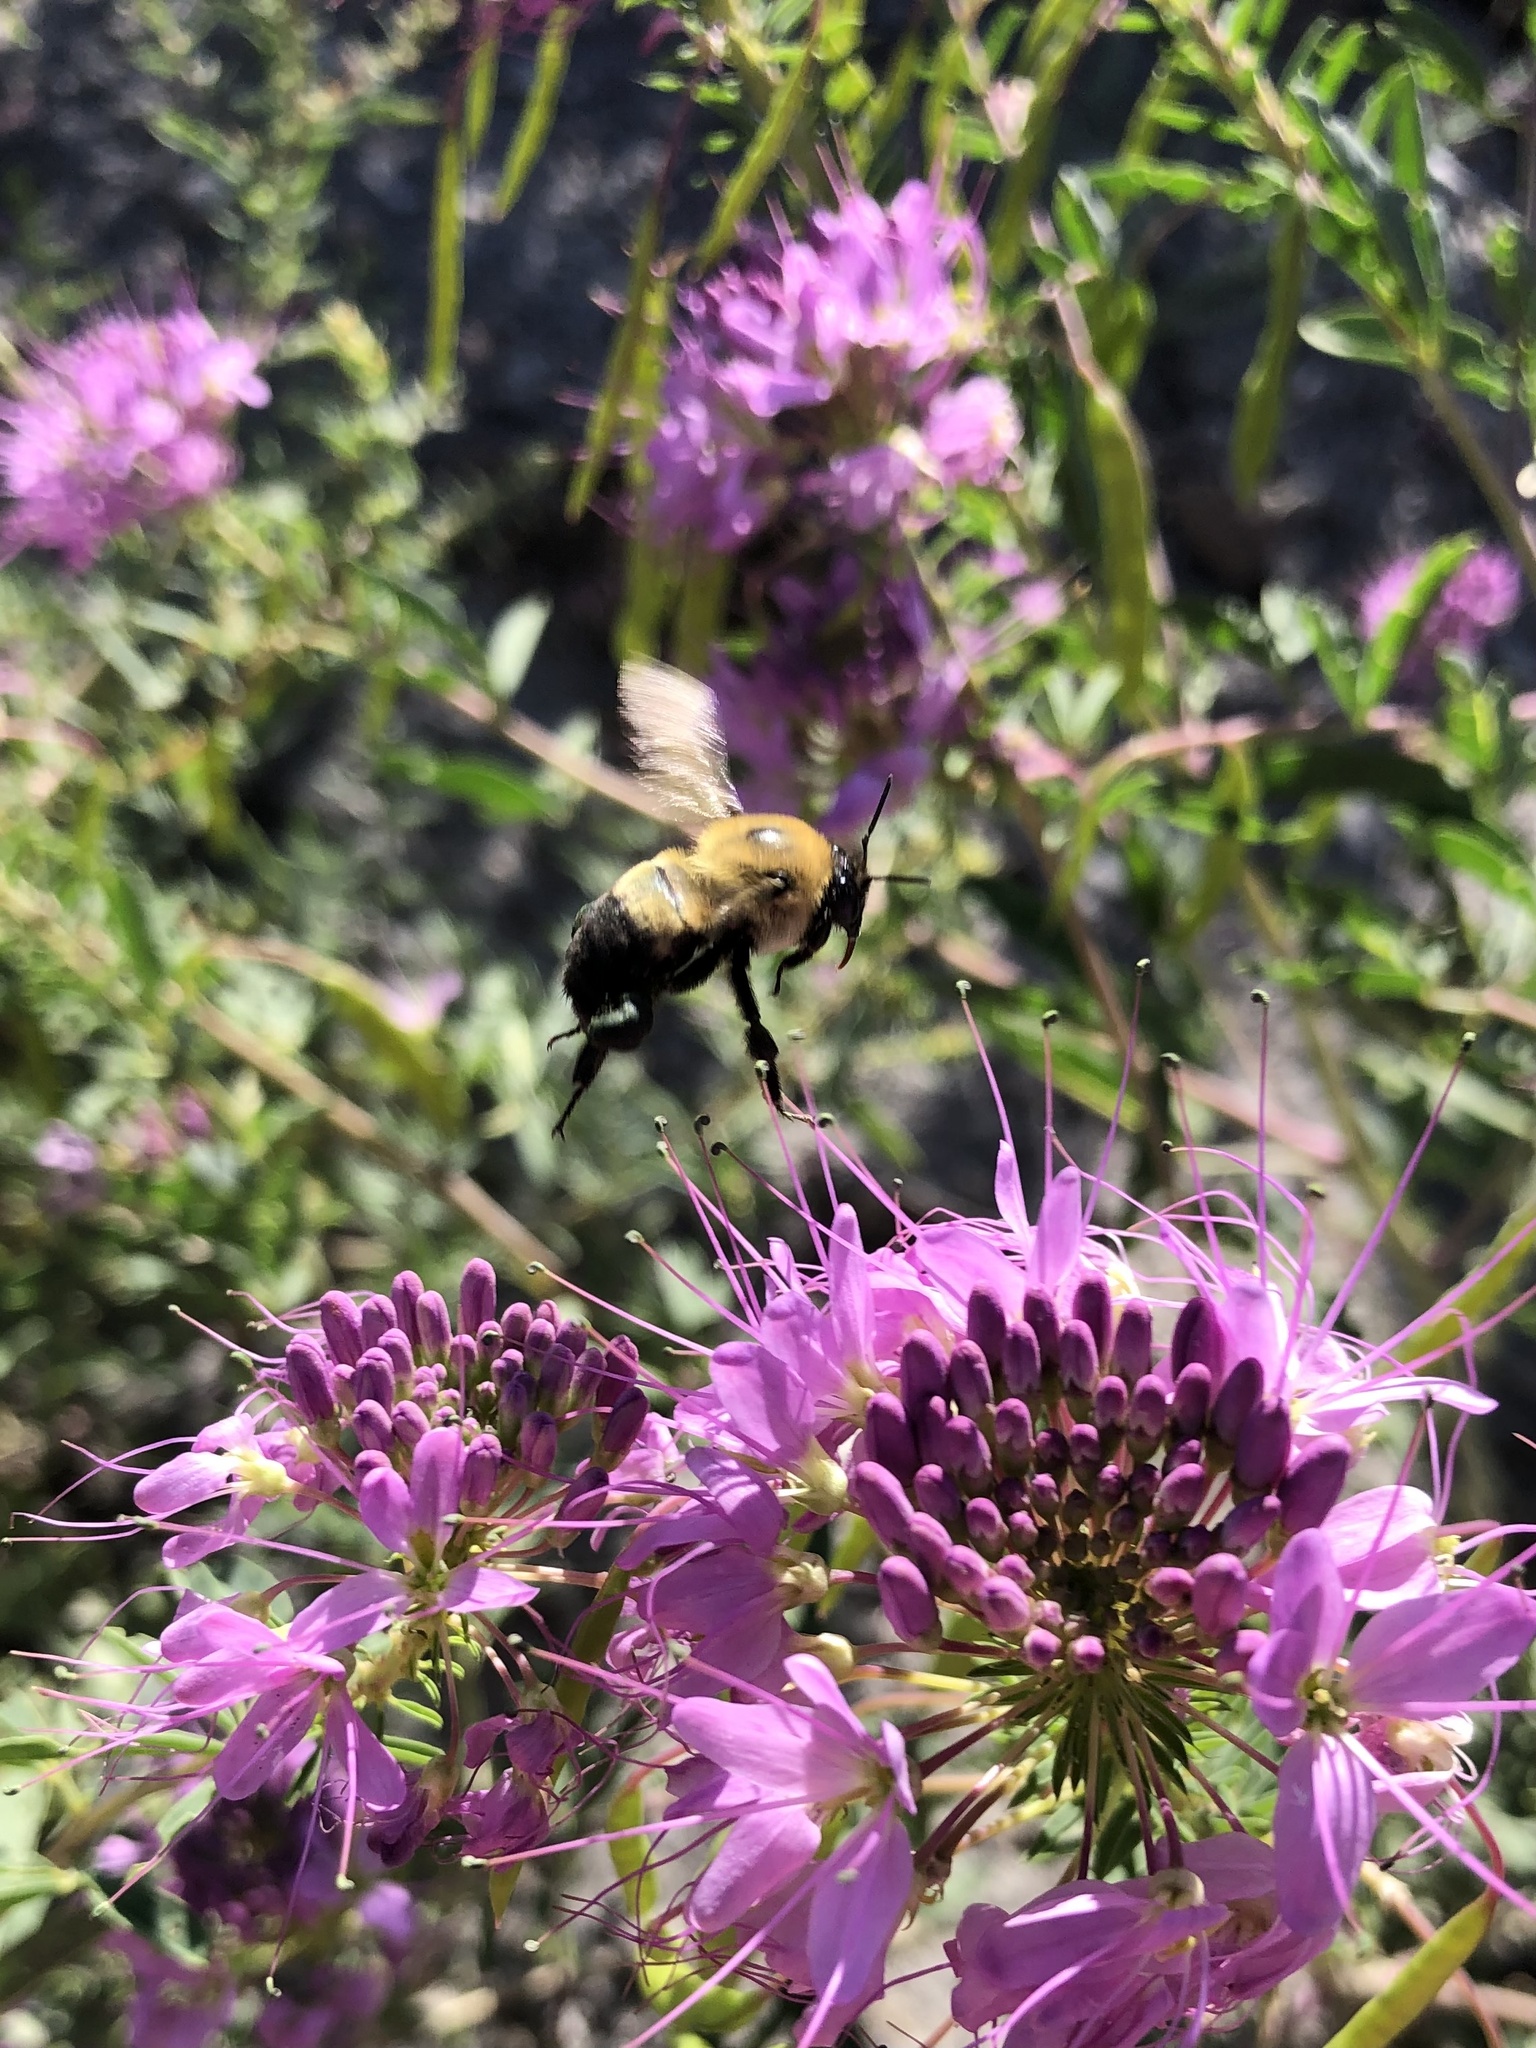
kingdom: Animalia
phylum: Arthropoda
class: Insecta
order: Hymenoptera
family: Apidae
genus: Bombus
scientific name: Bombus griseocollis
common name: Brown-belted bumble bee
